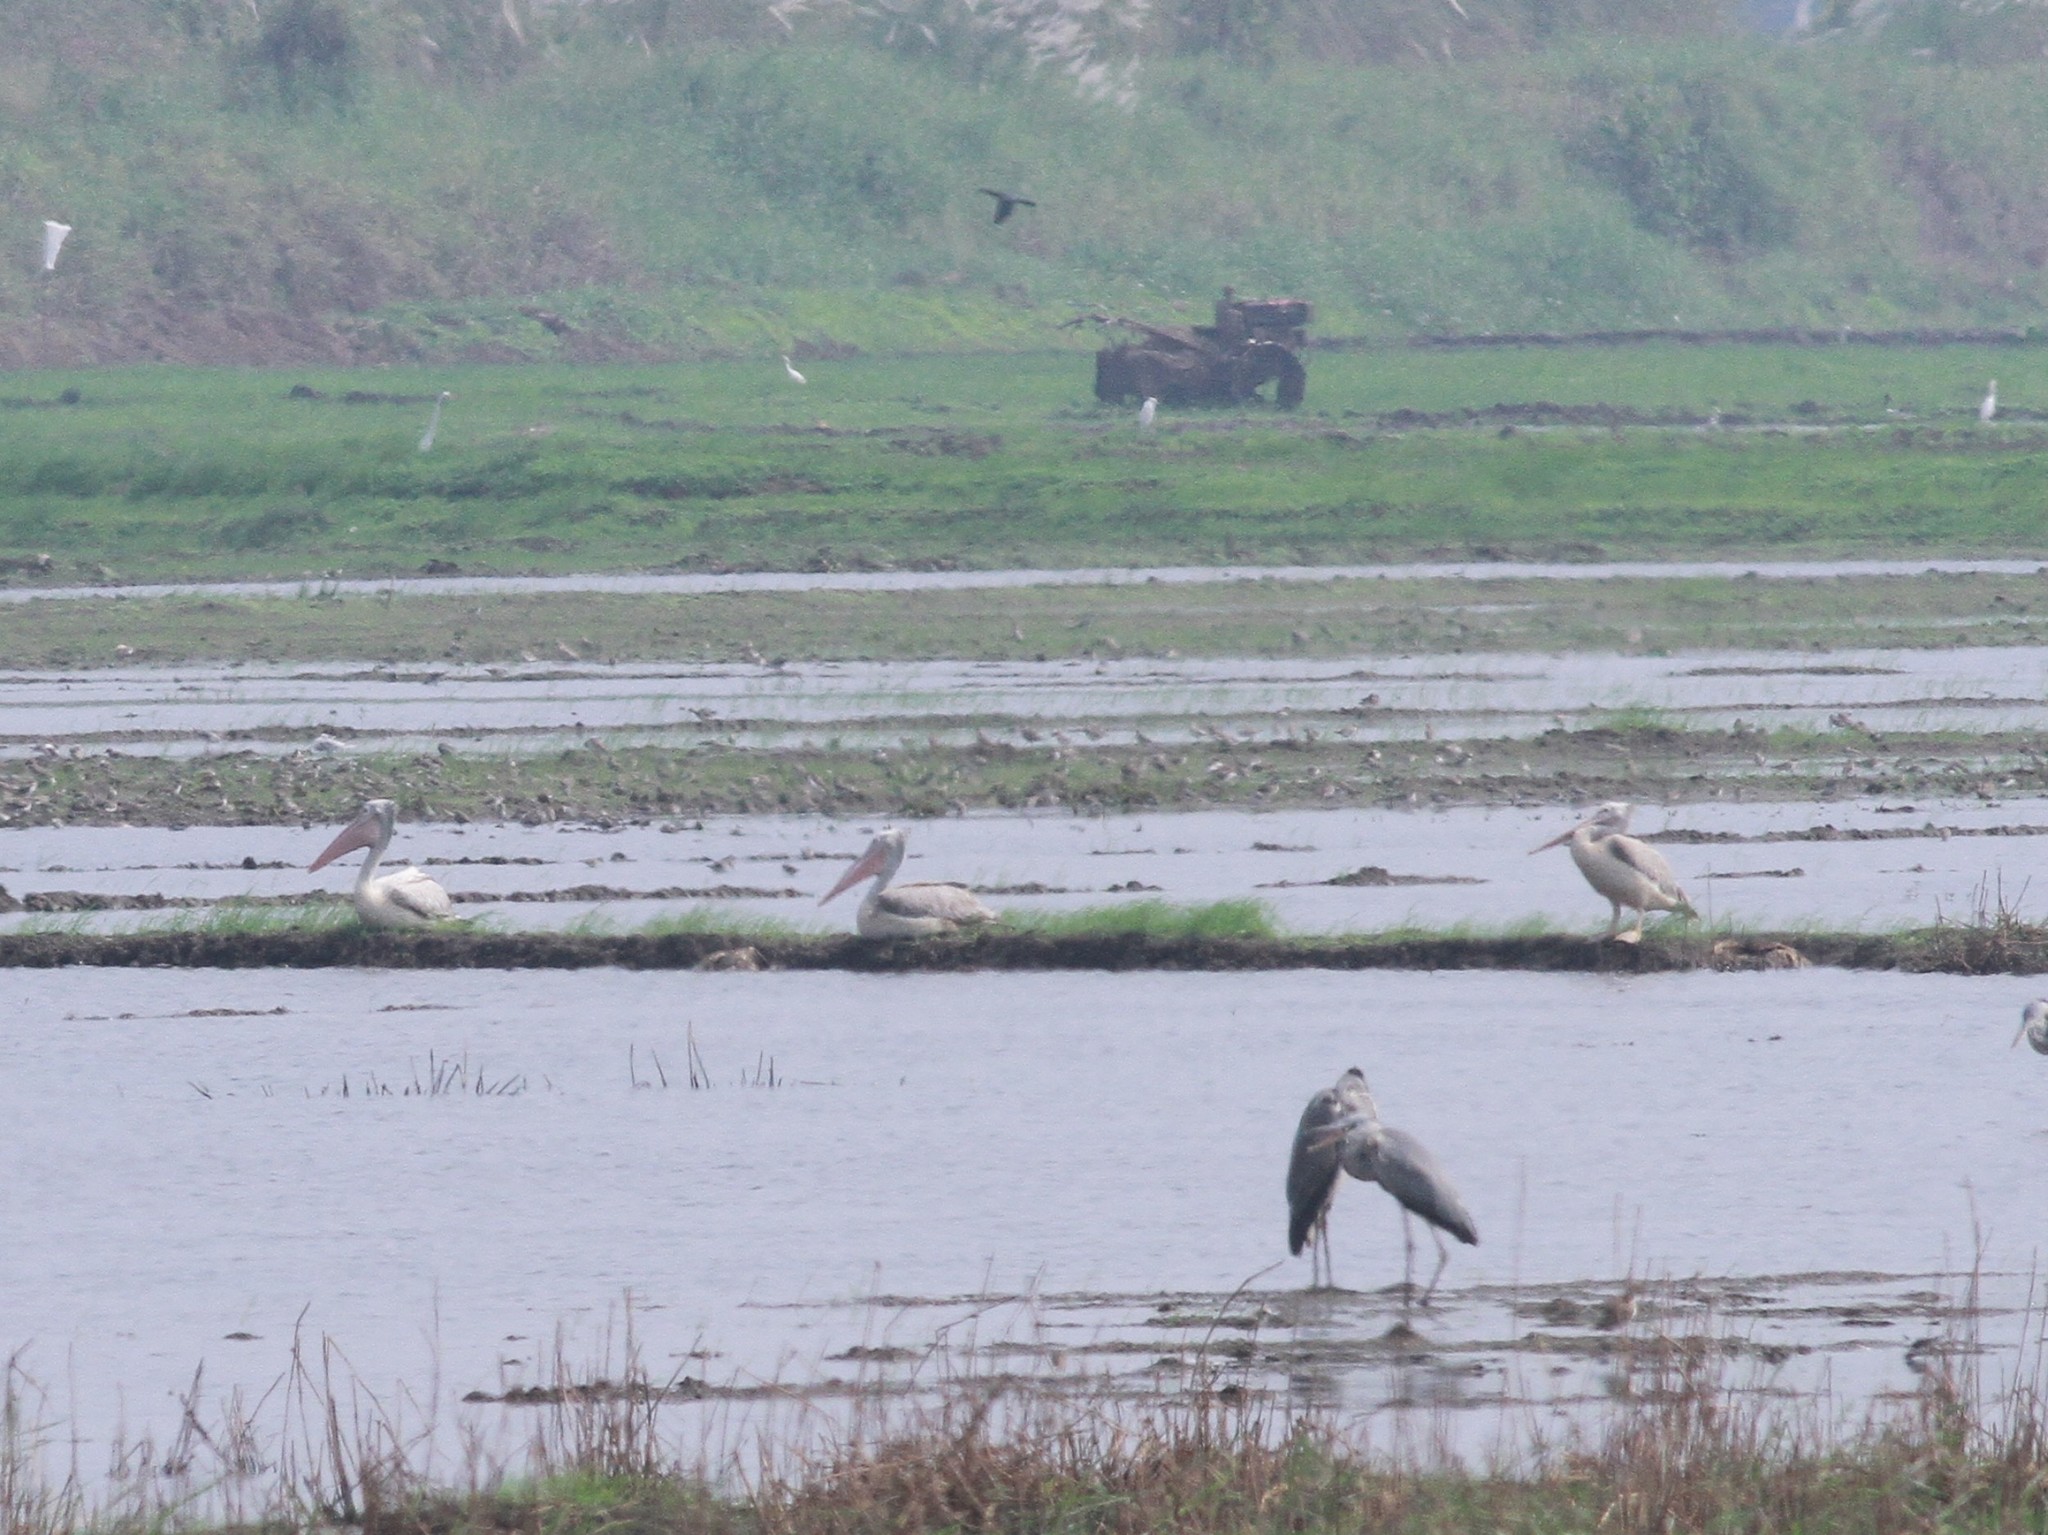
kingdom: Animalia
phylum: Chordata
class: Aves
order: Pelecaniformes
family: Pelecanidae
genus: Pelecanus
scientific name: Pelecanus philippensis
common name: Spot-billed pelican
